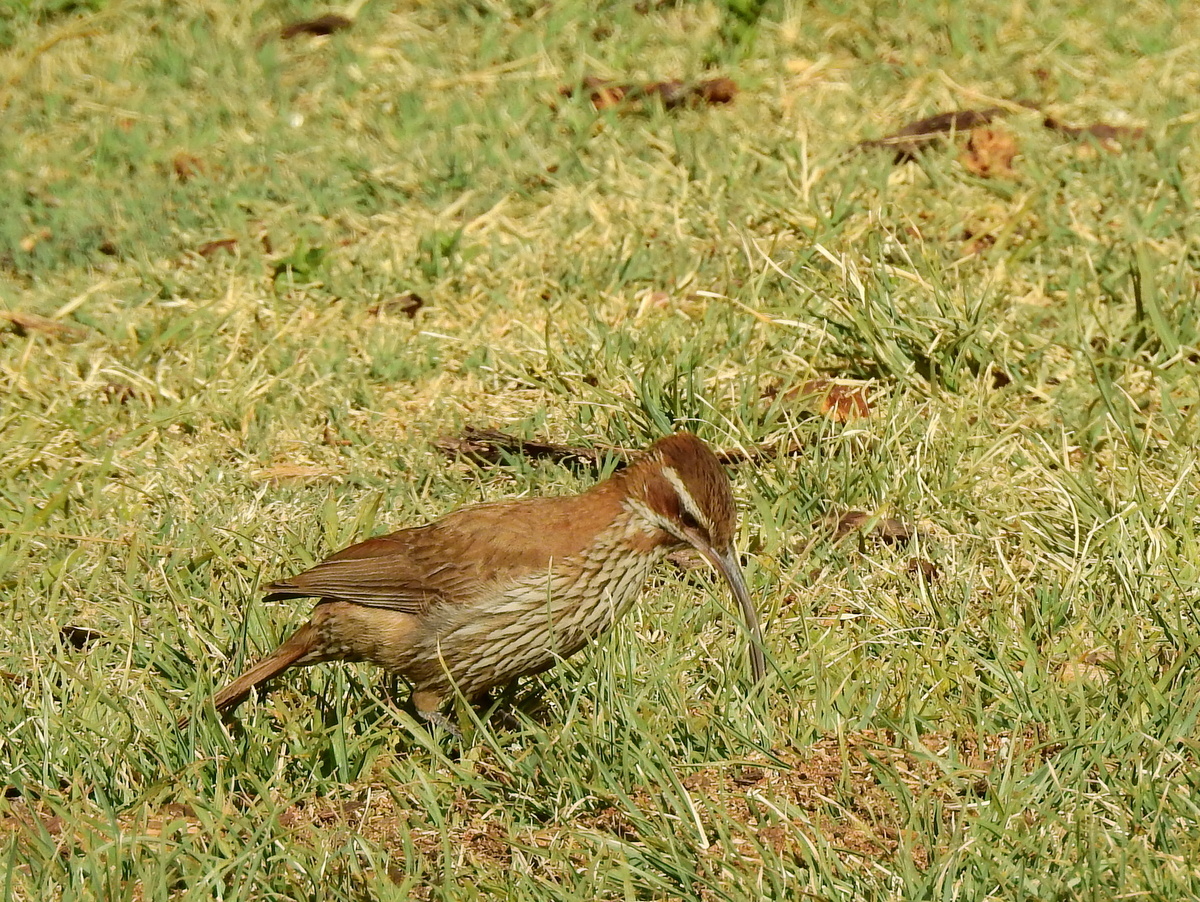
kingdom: Animalia
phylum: Chordata
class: Aves
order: Passeriformes
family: Furnariidae
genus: Drymornis
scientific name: Drymornis bridgesii
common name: Scimitar-billed woodcreeper
